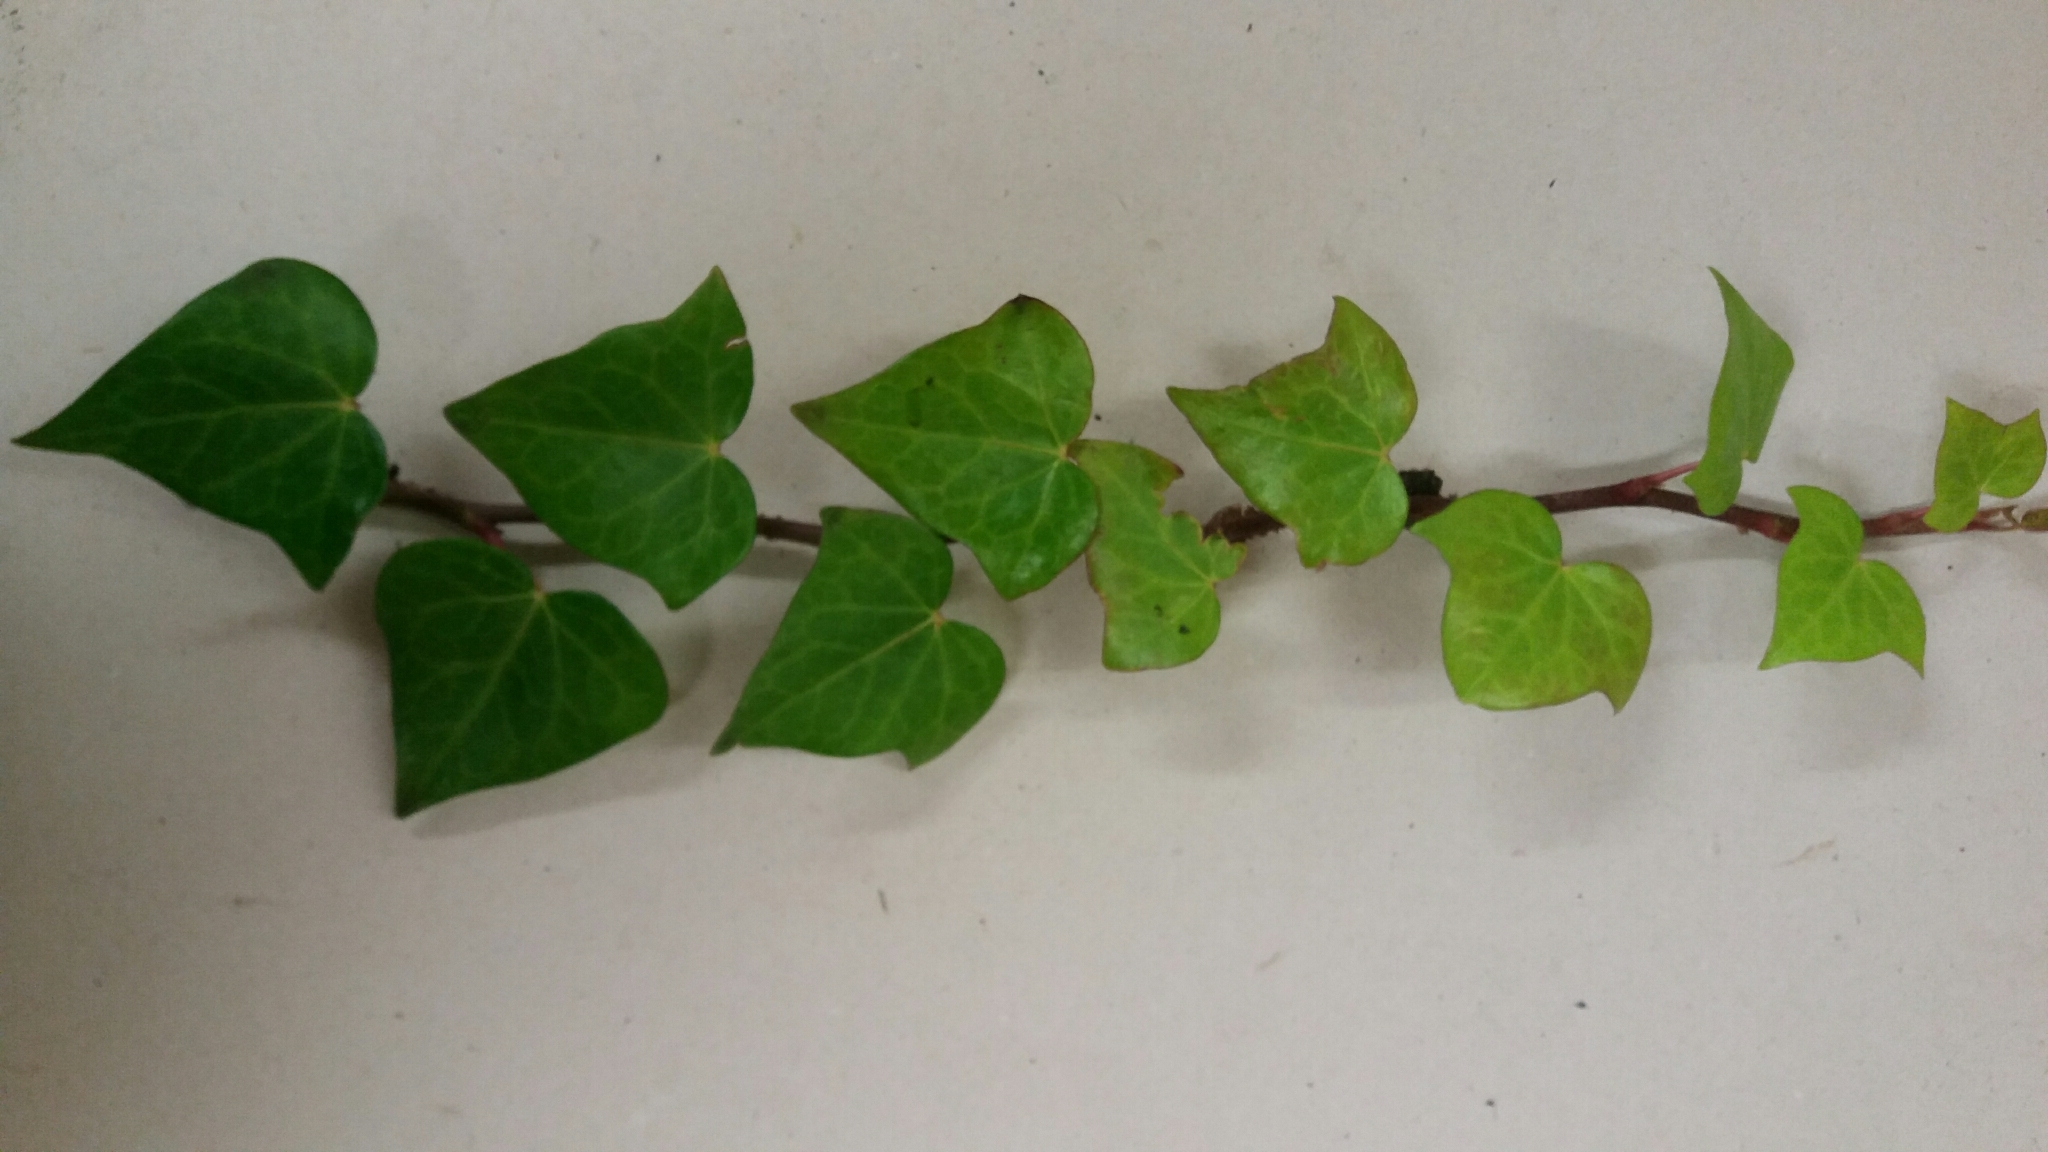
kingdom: Plantae
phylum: Tracheophyta
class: Magnoliopsida
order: Apiales
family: Araliaceae
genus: Hedera
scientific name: Hedera helix
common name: Ivy
